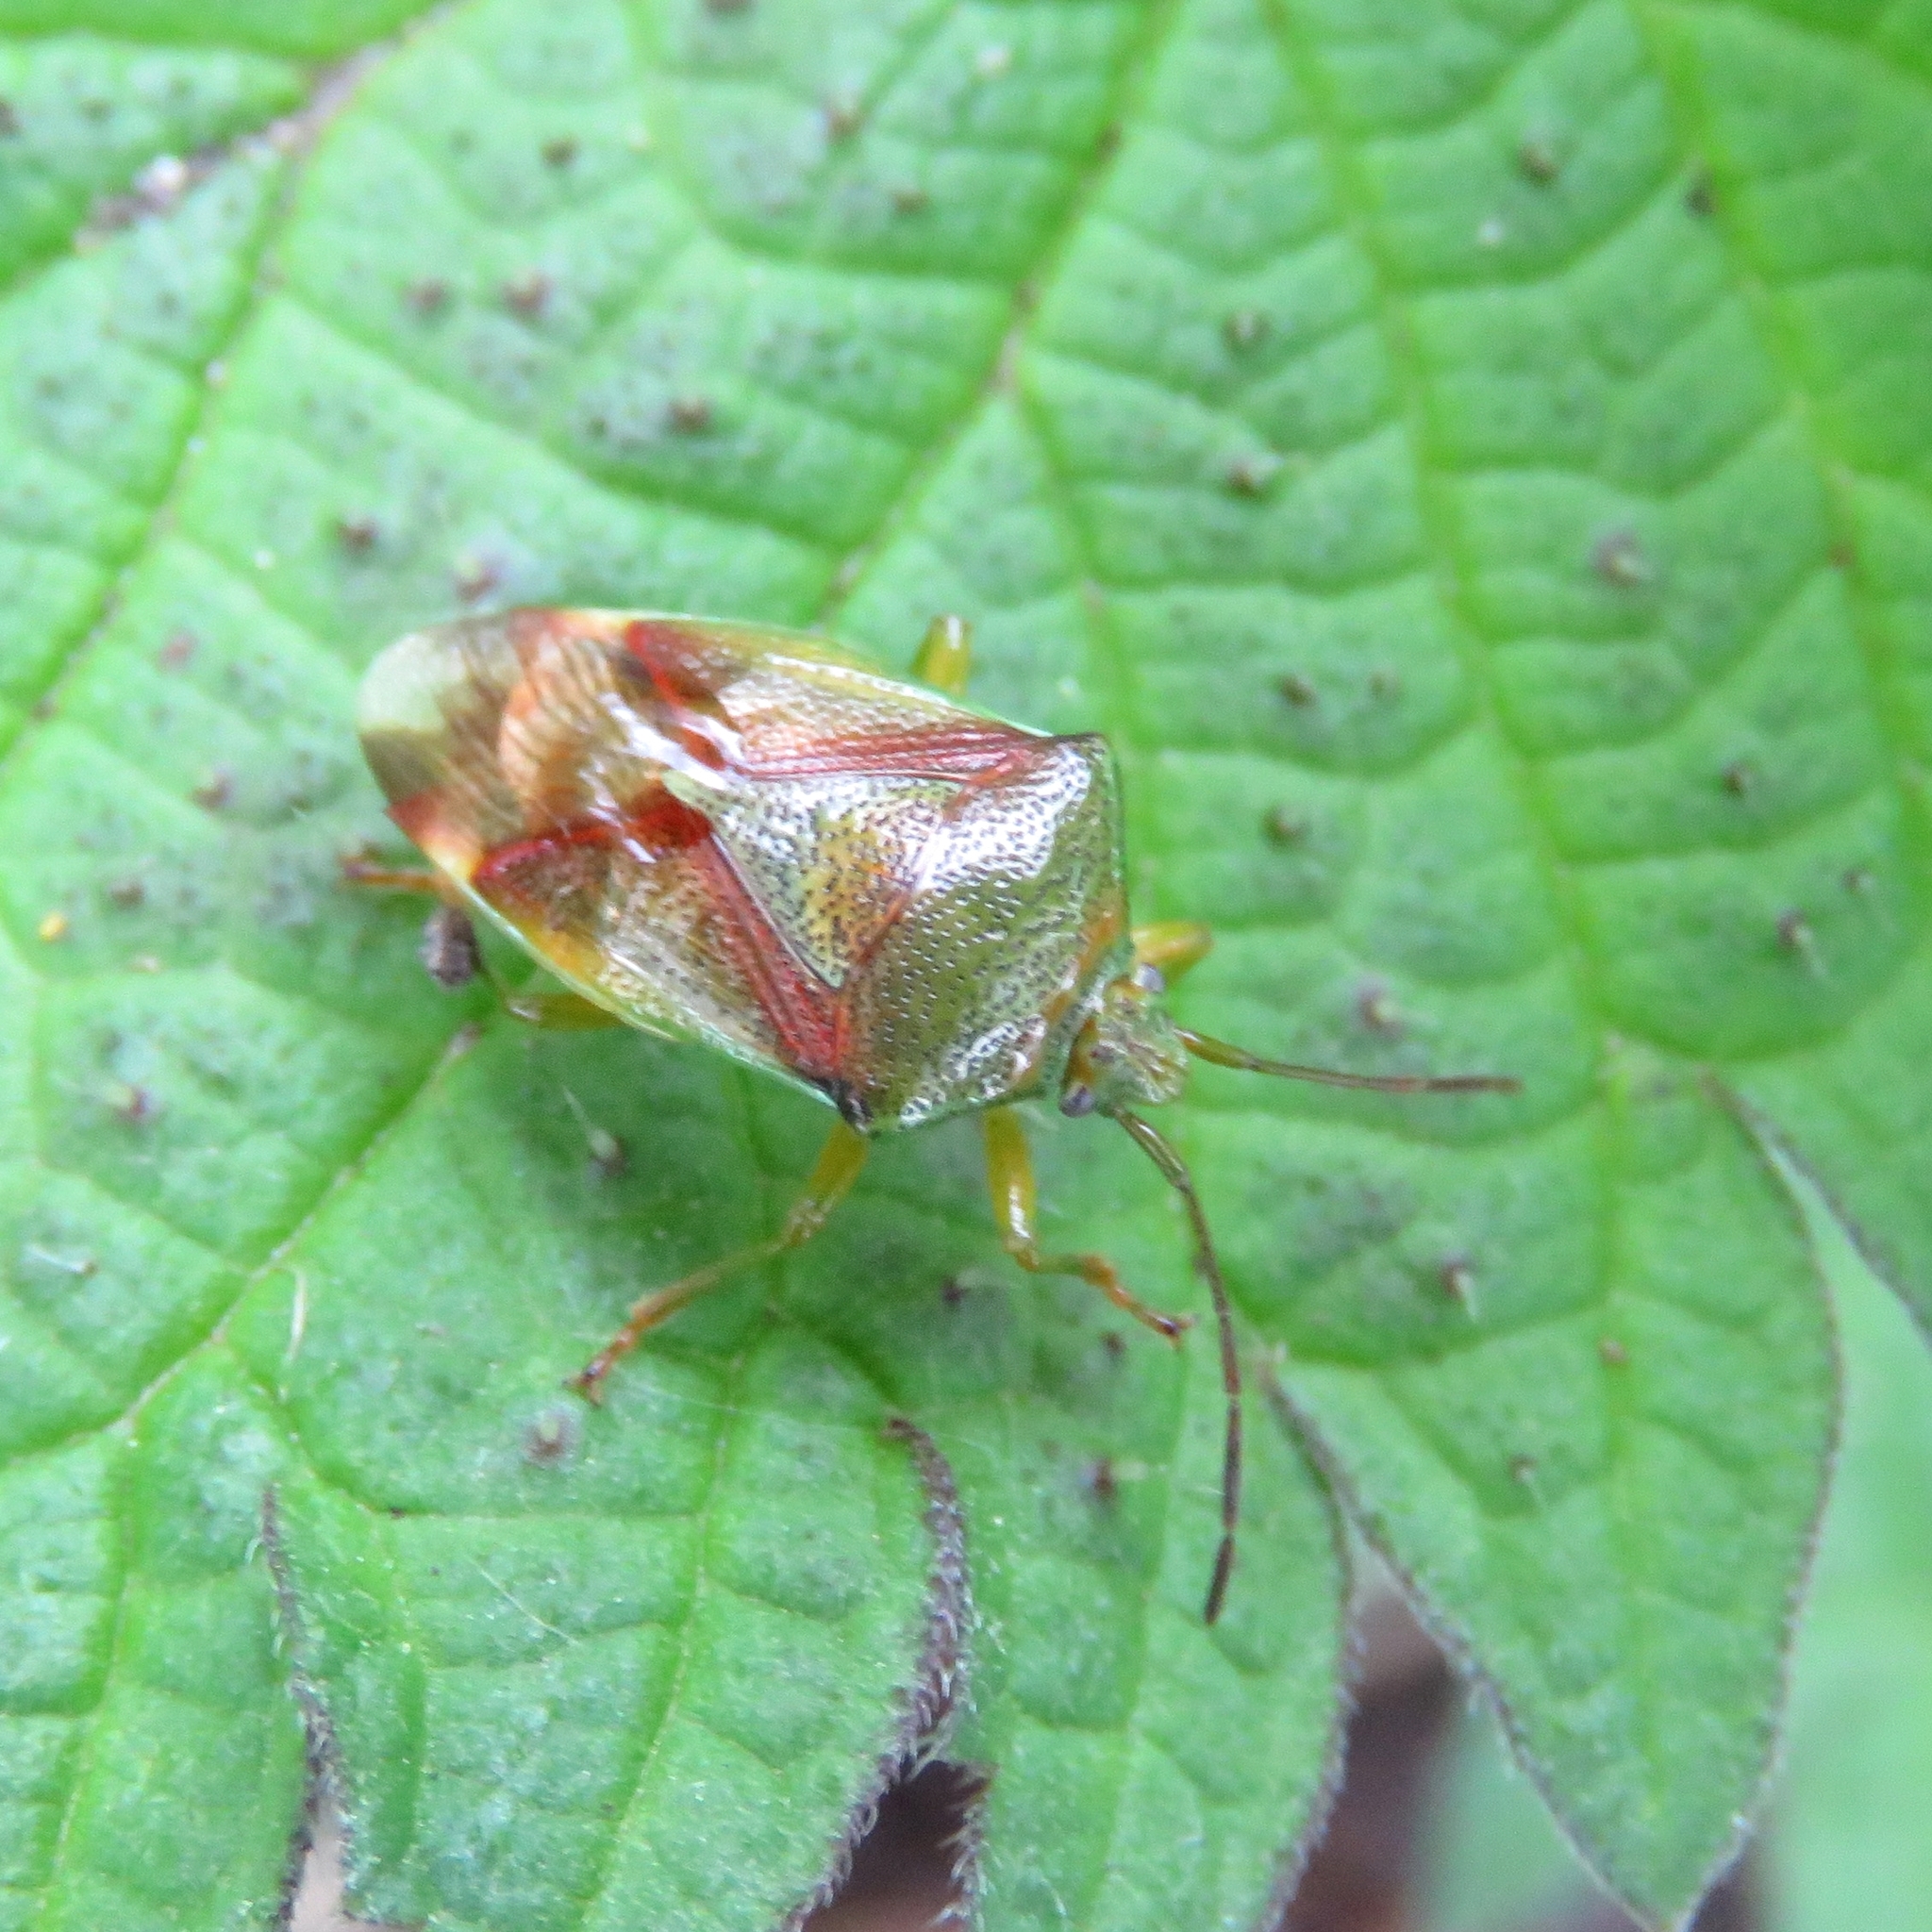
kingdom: Animalia
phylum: Arthropoda
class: Insecta
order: Hemiptera
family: Acanthosomatidae
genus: Elasmostethus
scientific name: Elasmostethus interstinctus
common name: Birch shieldbug
